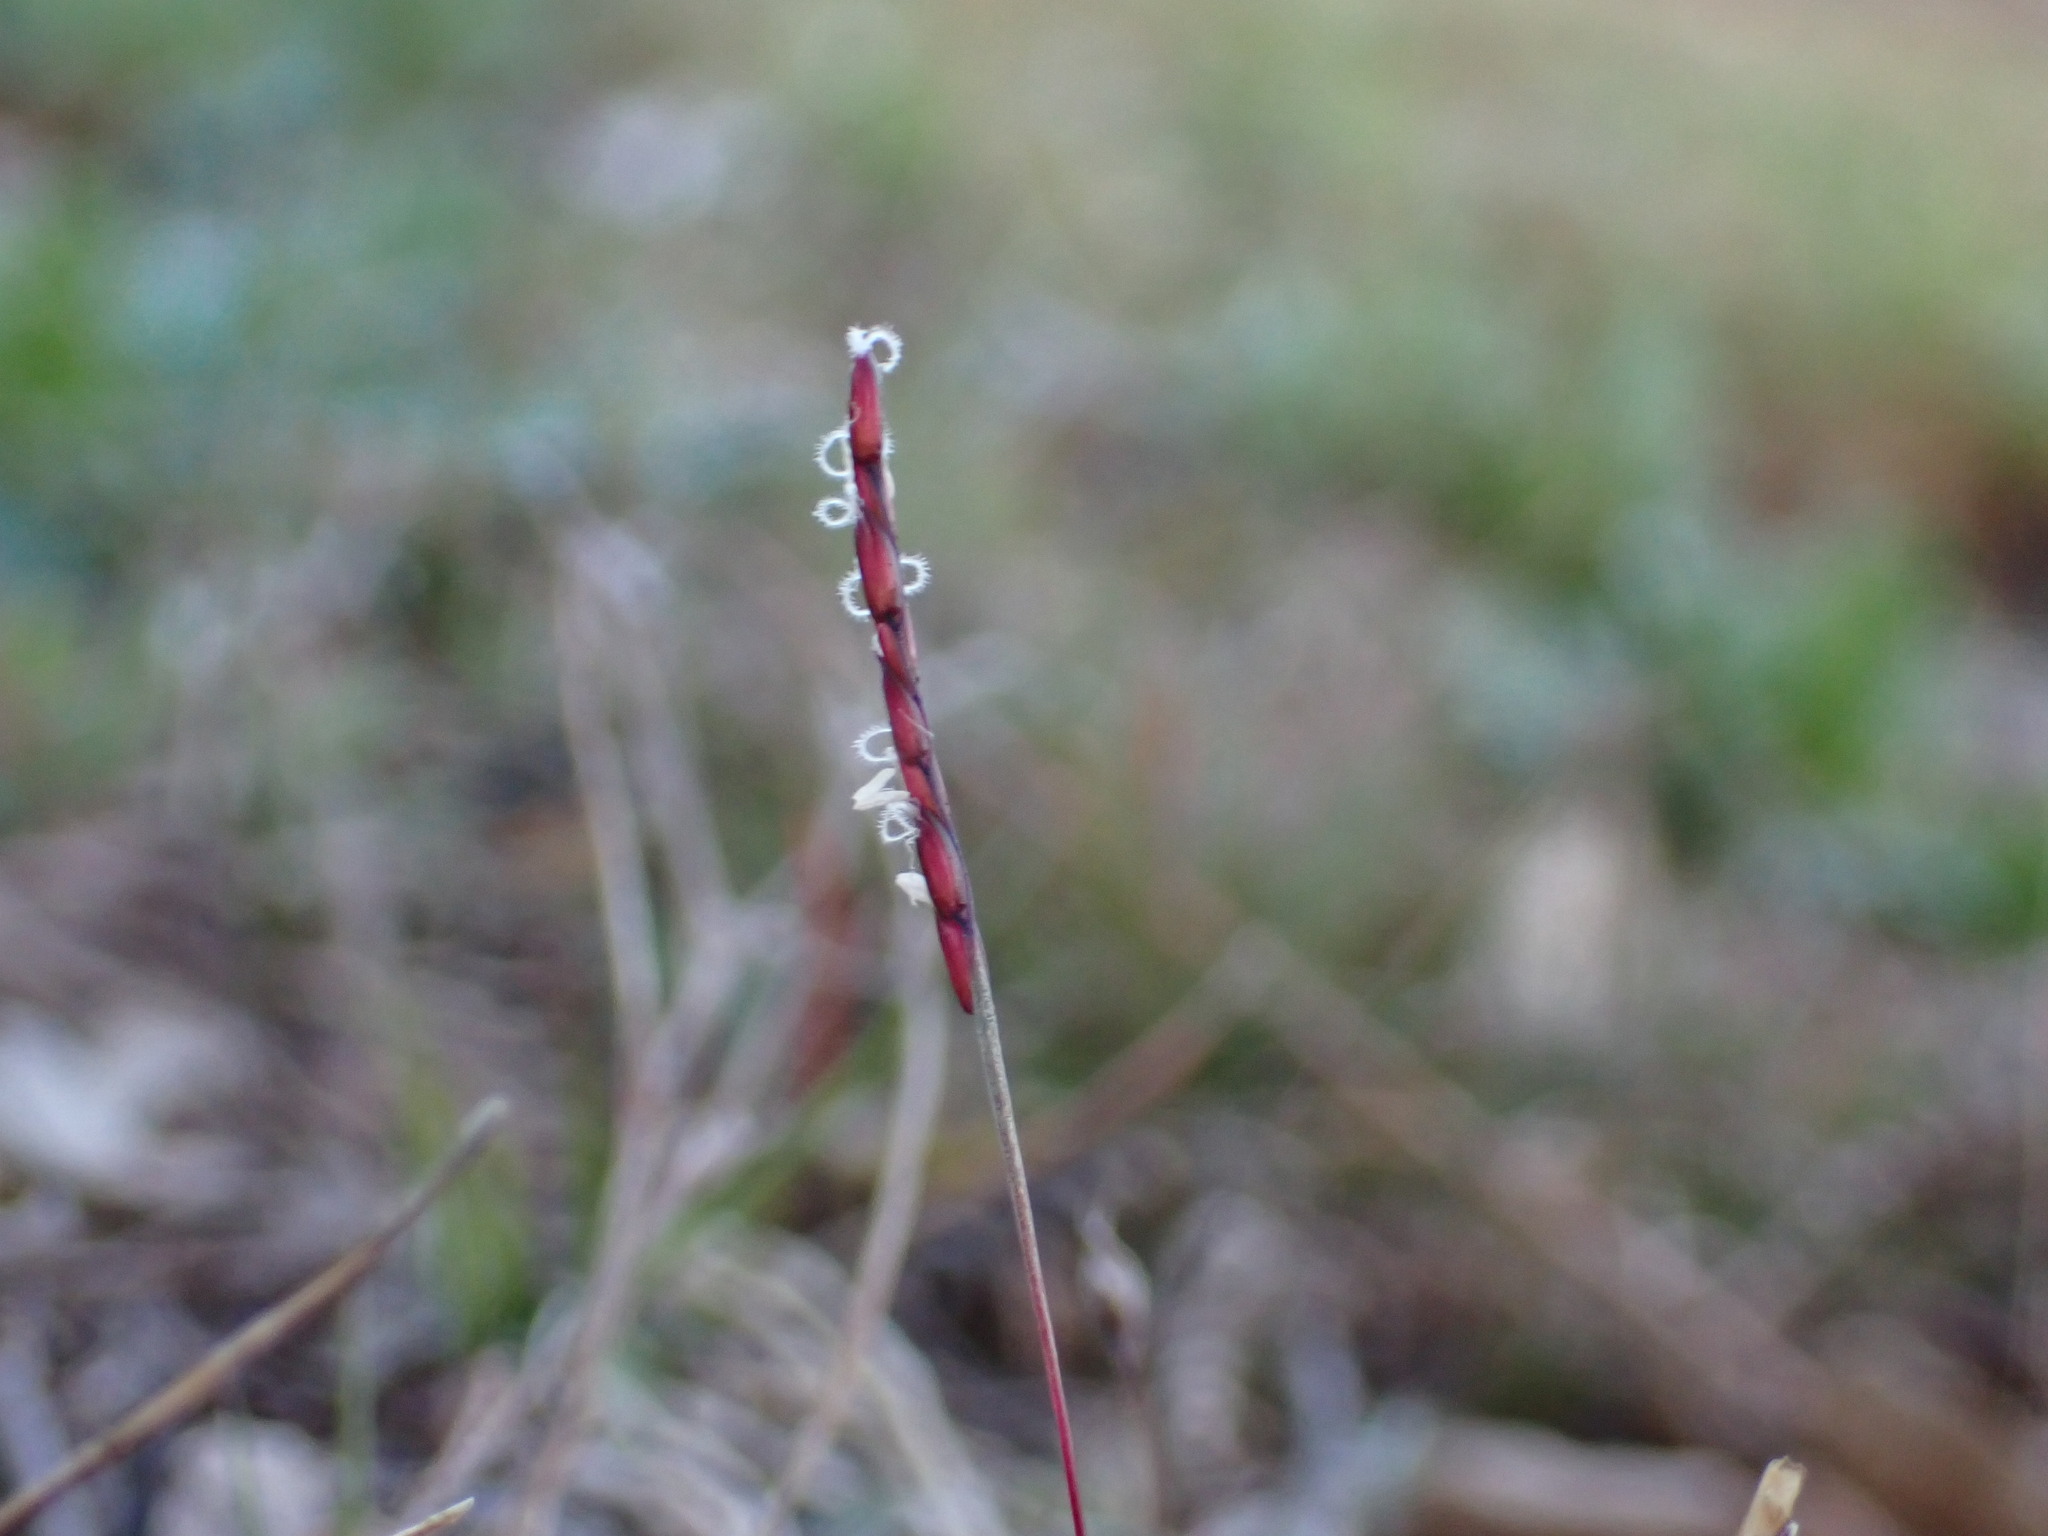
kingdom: Plantae
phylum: Tracheophyta
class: Liliopsida
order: Poales
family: Poaceae
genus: Mibora
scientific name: Mibora minima
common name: Early sand-grass
